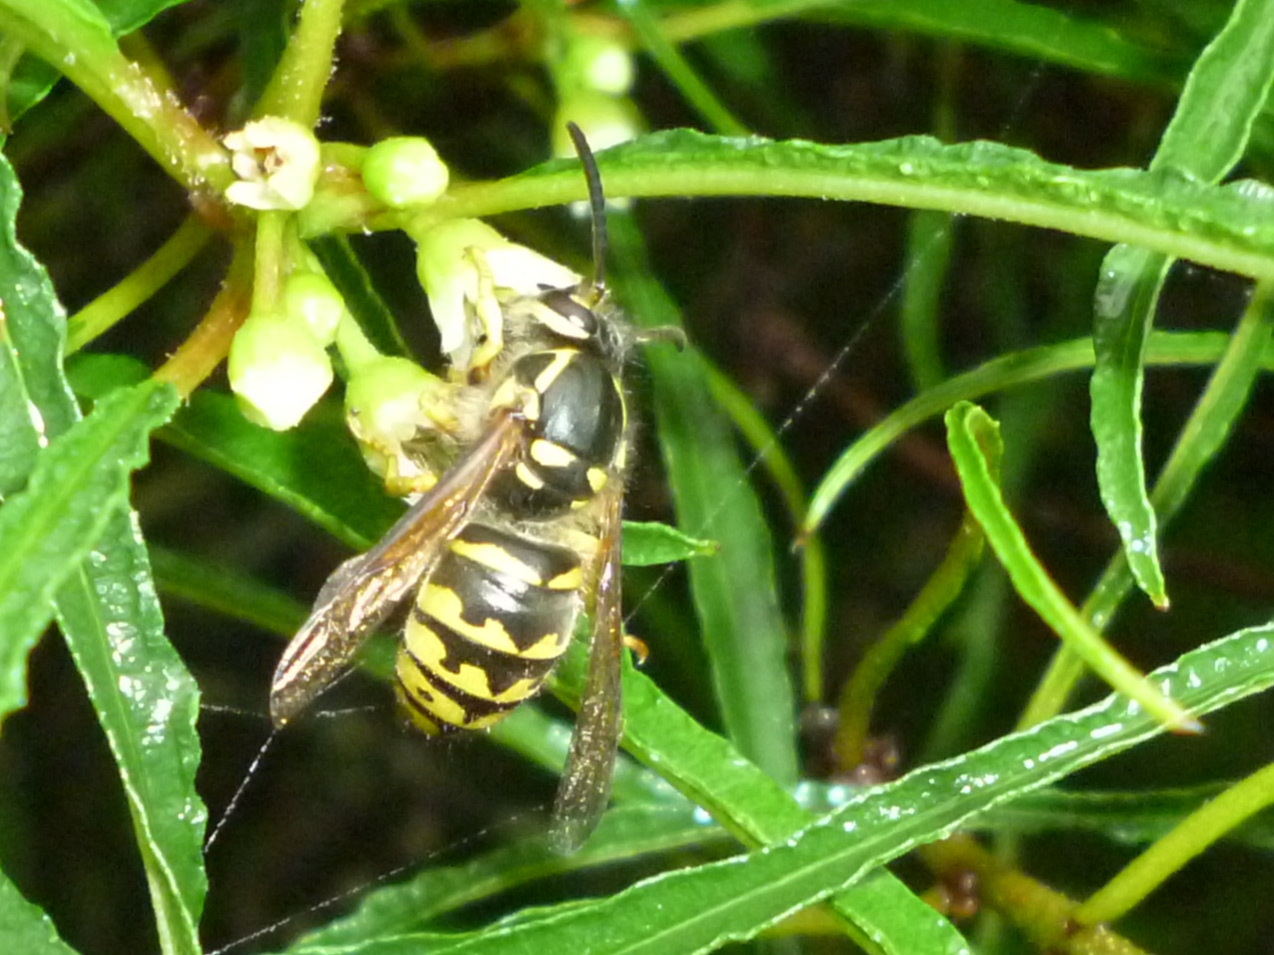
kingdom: Animalia
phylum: Arthropoda
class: Insecta
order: Hymenoptera
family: Vespidae
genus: Dolichovespula
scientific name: Dolichovespula arenaria
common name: Aerial yellowjacket
